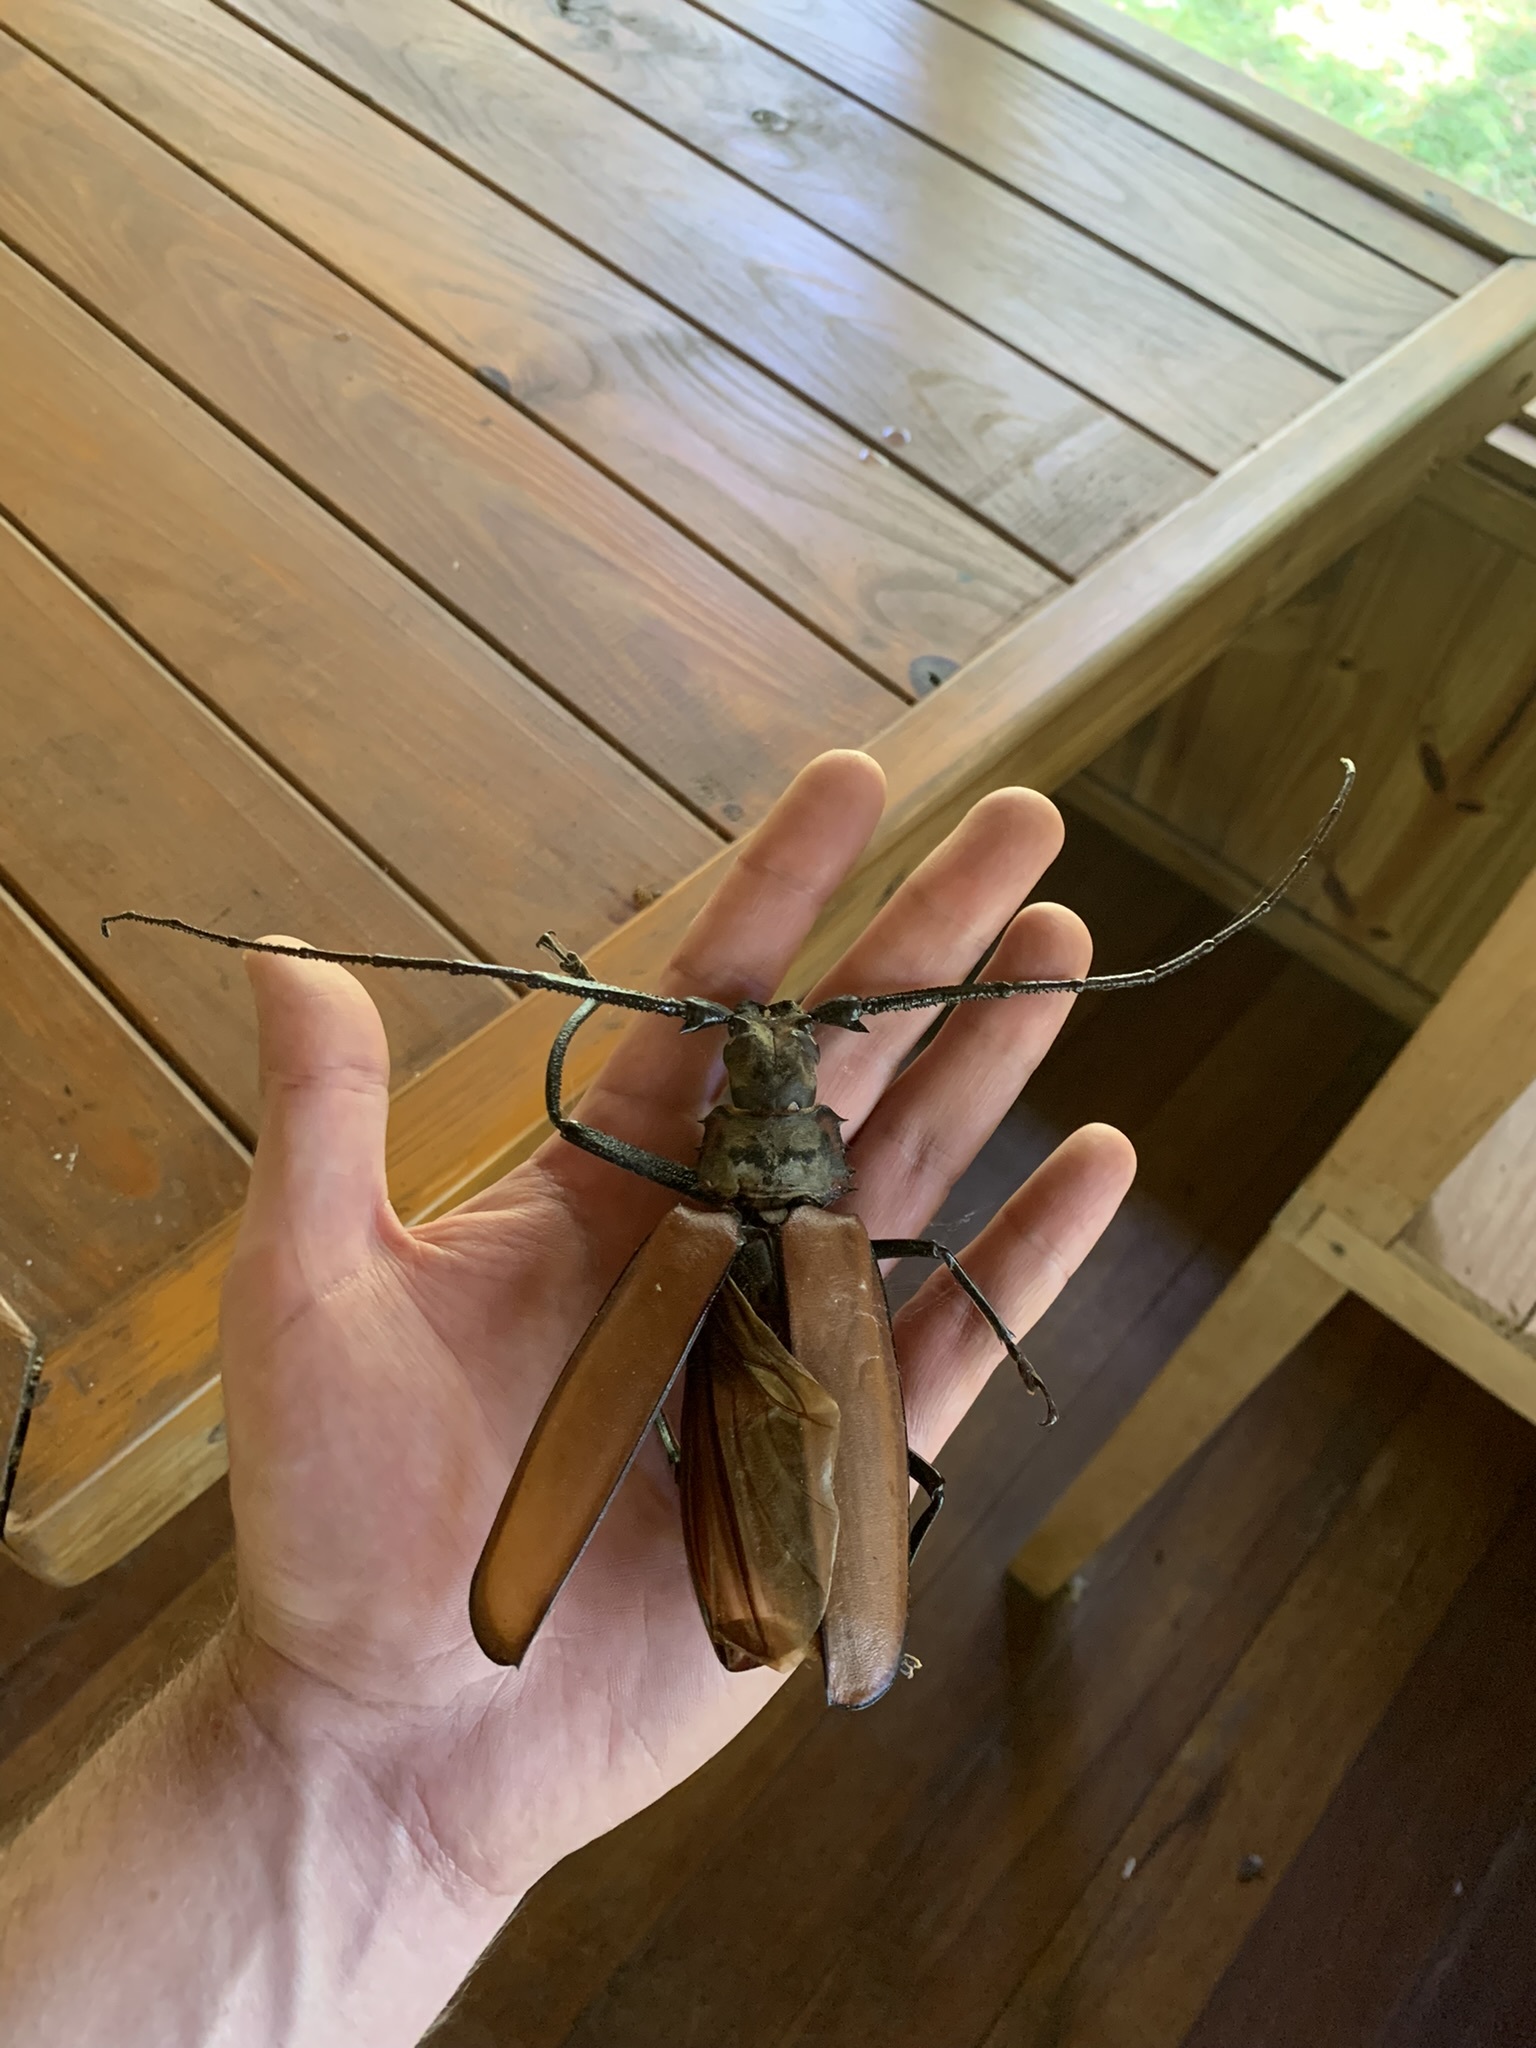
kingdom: Animalia
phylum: Arthropoda
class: Insecta
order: Coleoptera
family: Cerambycidae
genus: Enoplocerus
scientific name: Enoplocerus armillatus
